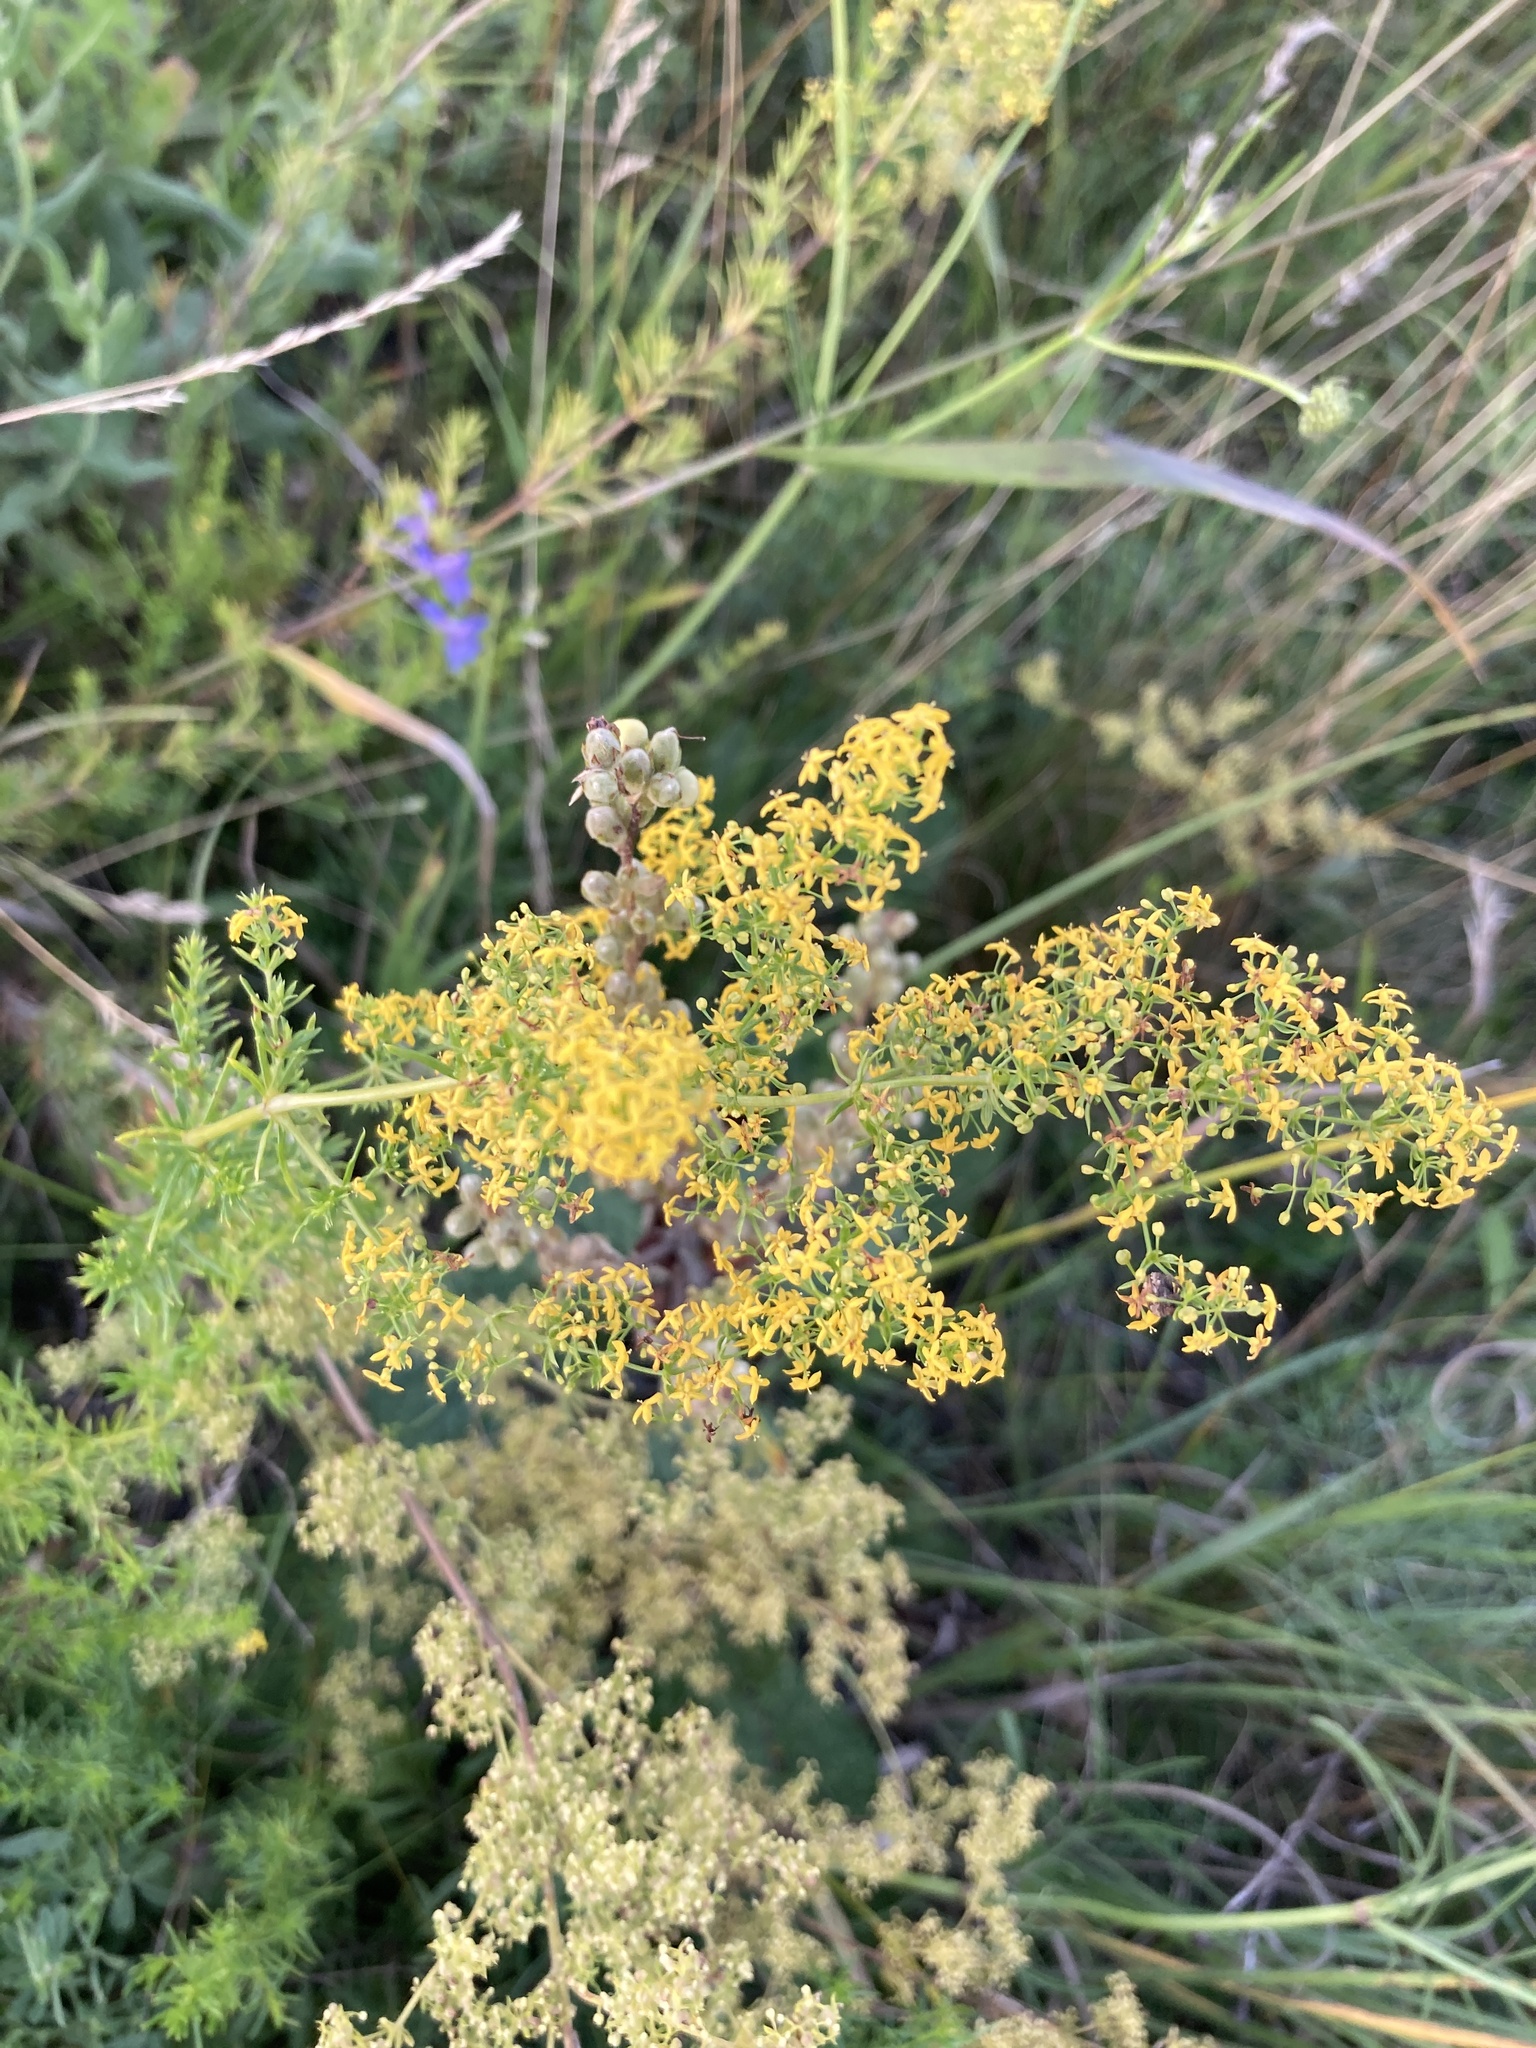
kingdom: Plantae
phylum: Tracheophyta
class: Magnoliopsida
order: Gentianales
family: Rubiaceae
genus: Galium
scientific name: Galium verum
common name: Lady's bedstraw
